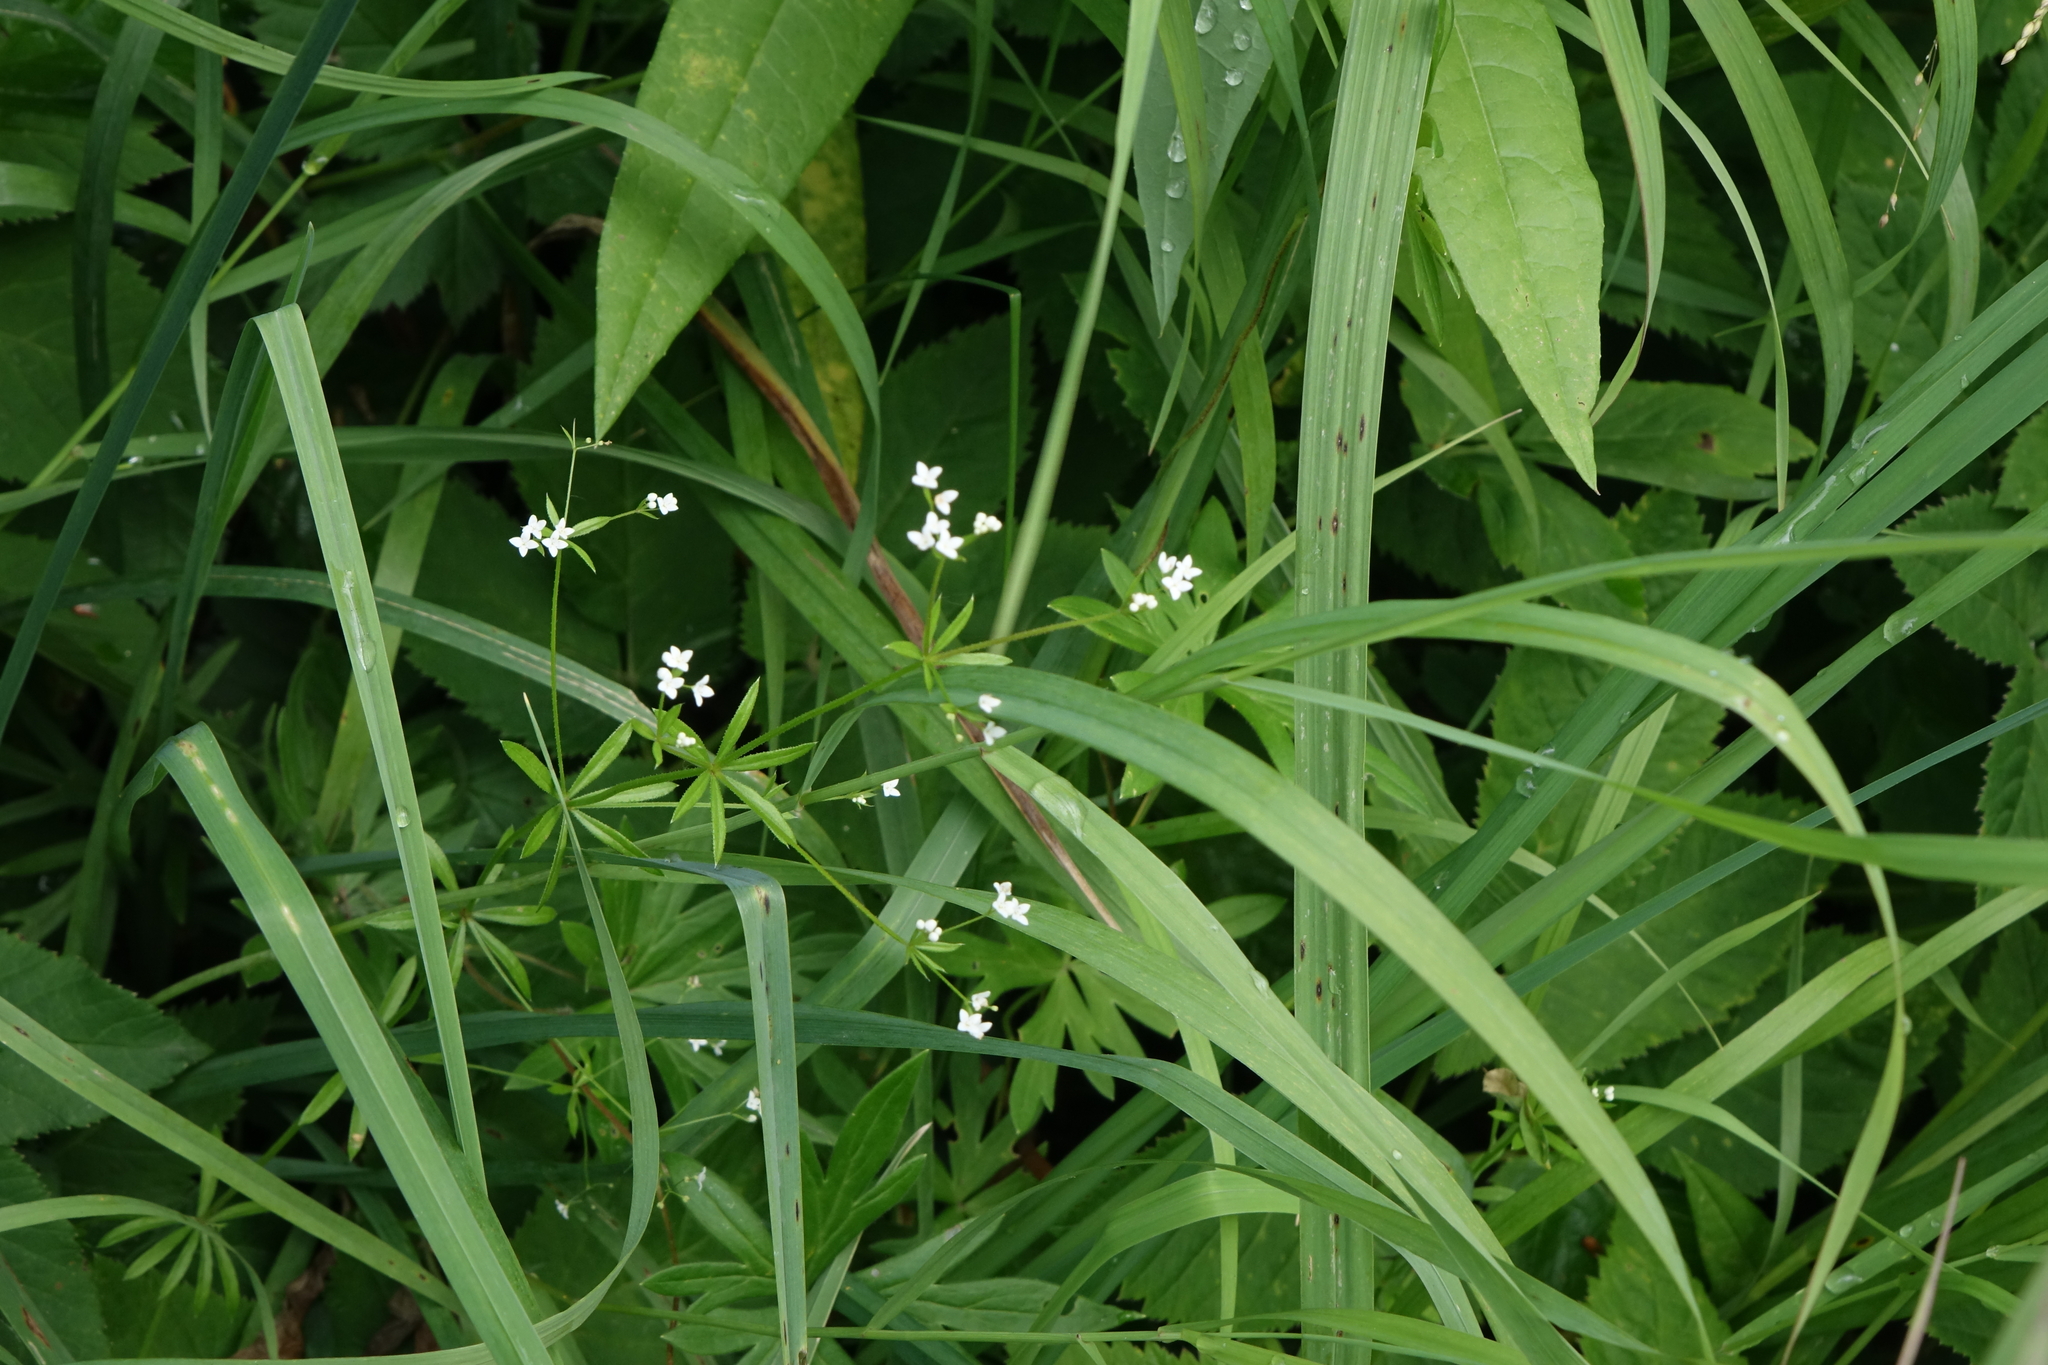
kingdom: Plantae
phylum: Tracheophyta
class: Magnoliopsida
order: Gentianales
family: Rubiaceae
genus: Galium
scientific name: Galium uliginosum
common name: Fen bedstraw
